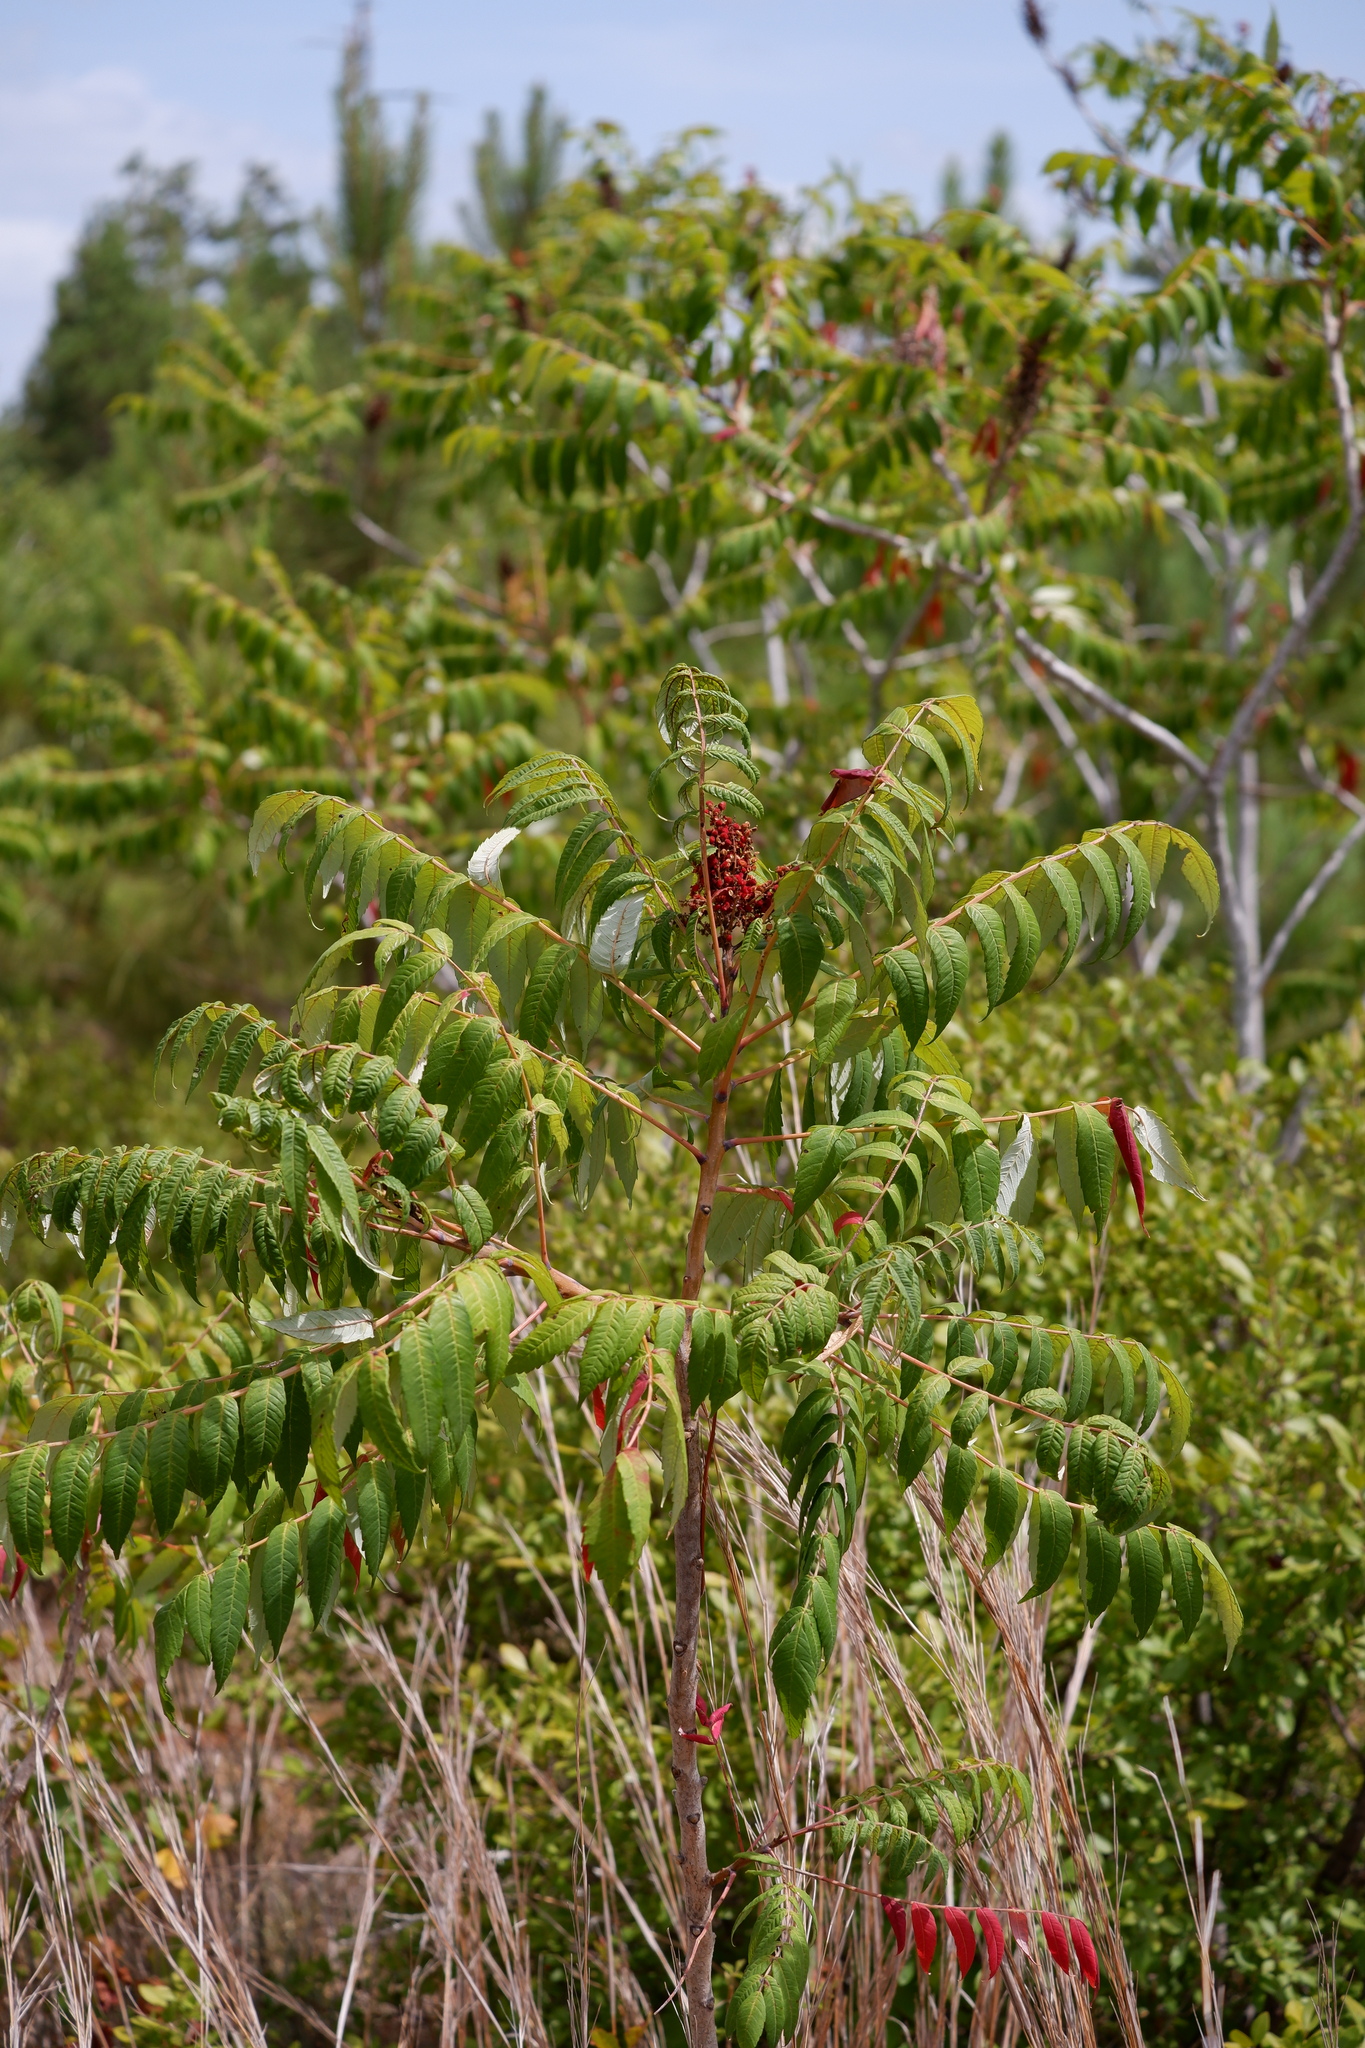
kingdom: Plantae
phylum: Tracheophyta
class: Magnoliopsida
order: Sapindales
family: Anacardiaceae
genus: Rhus
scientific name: Rhus glabra
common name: Scarlet sumac
